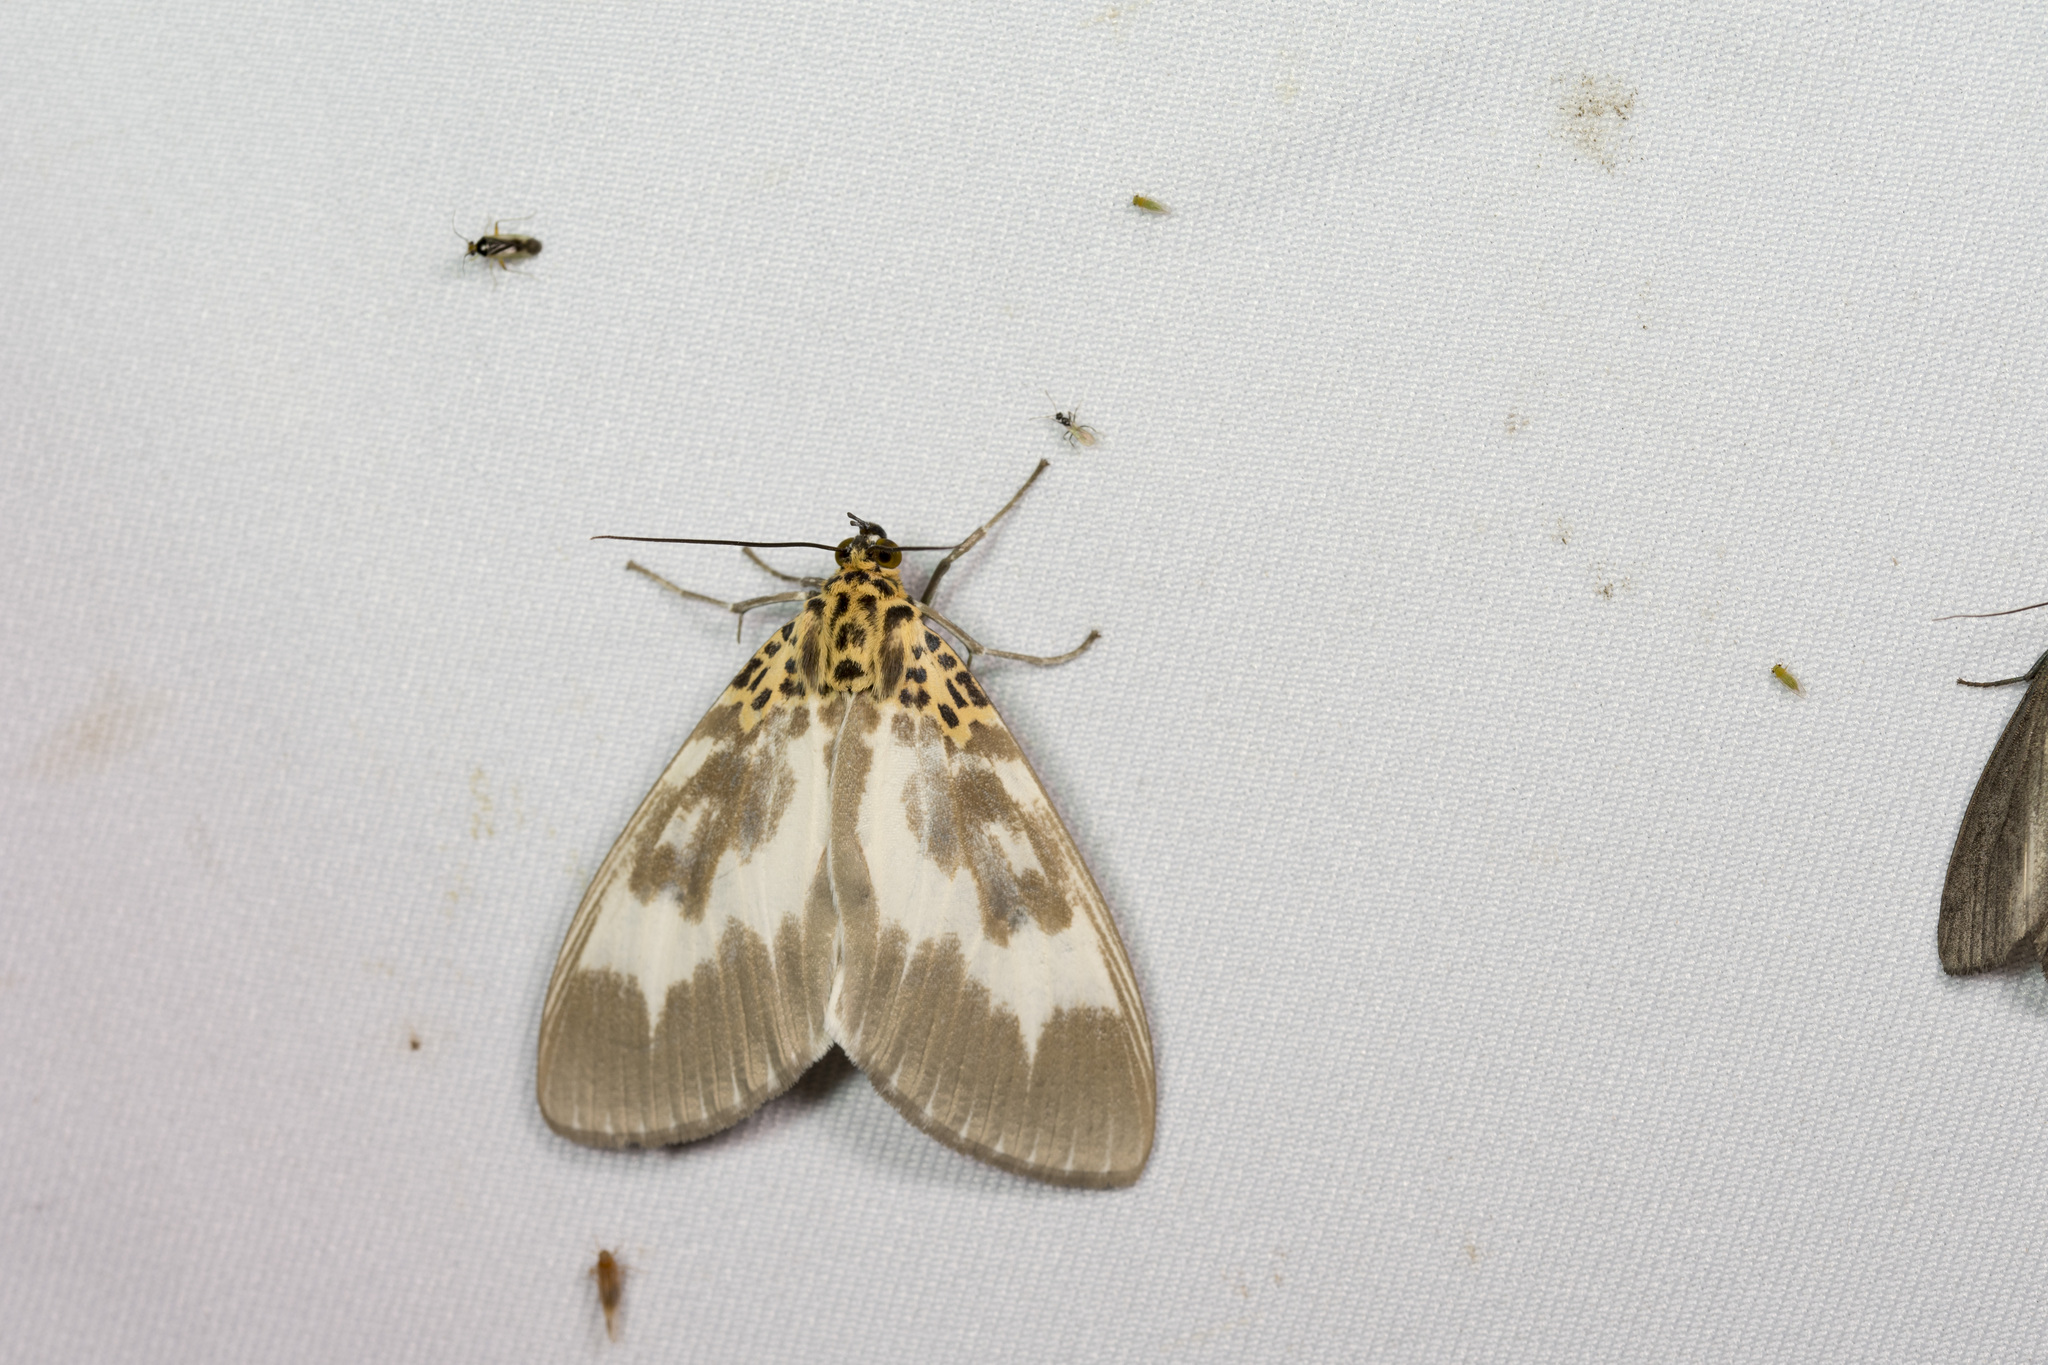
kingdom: Animalia
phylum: Arthropoda
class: Insecta
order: Lepidoptera
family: Erebidae
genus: Asota
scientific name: Asota tortuosa
